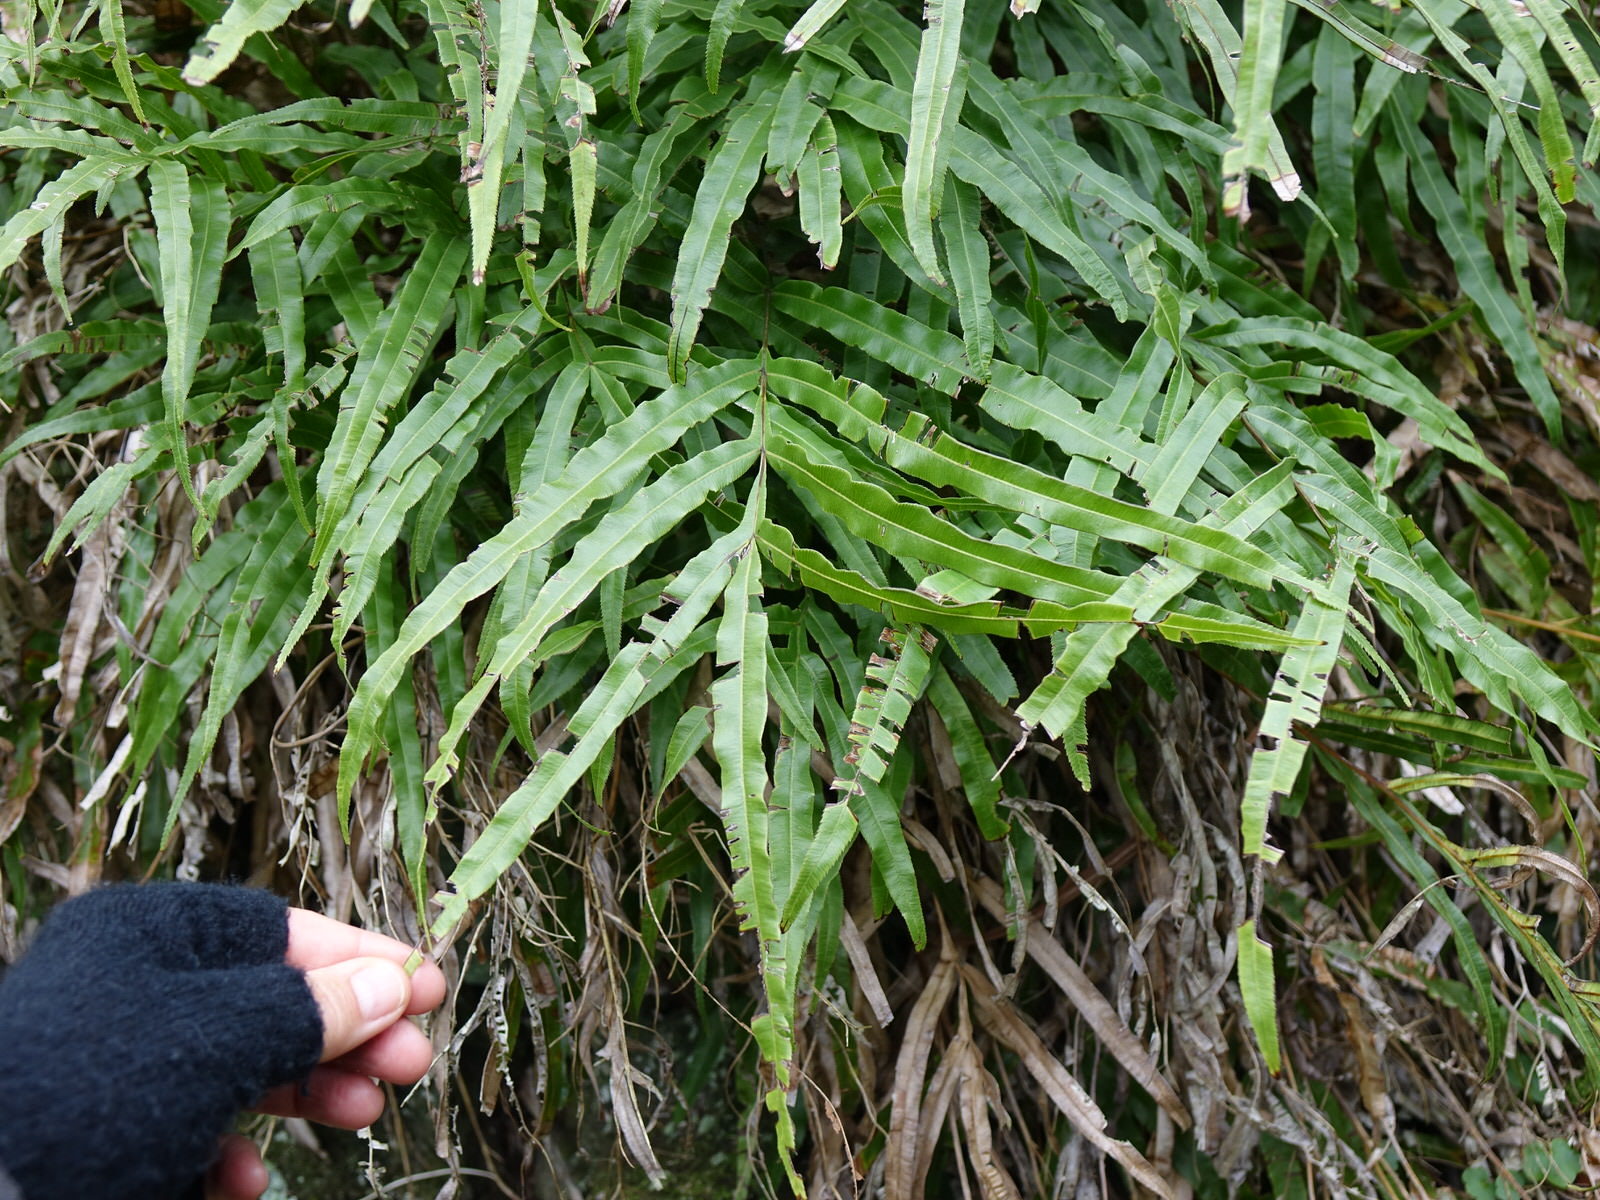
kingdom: Plantae
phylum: Tracheophyta
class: Polypodiopsida
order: Polypodiales
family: Pteridaceae
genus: Pteris
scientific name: Pteris cretica
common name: Ribbon fern
